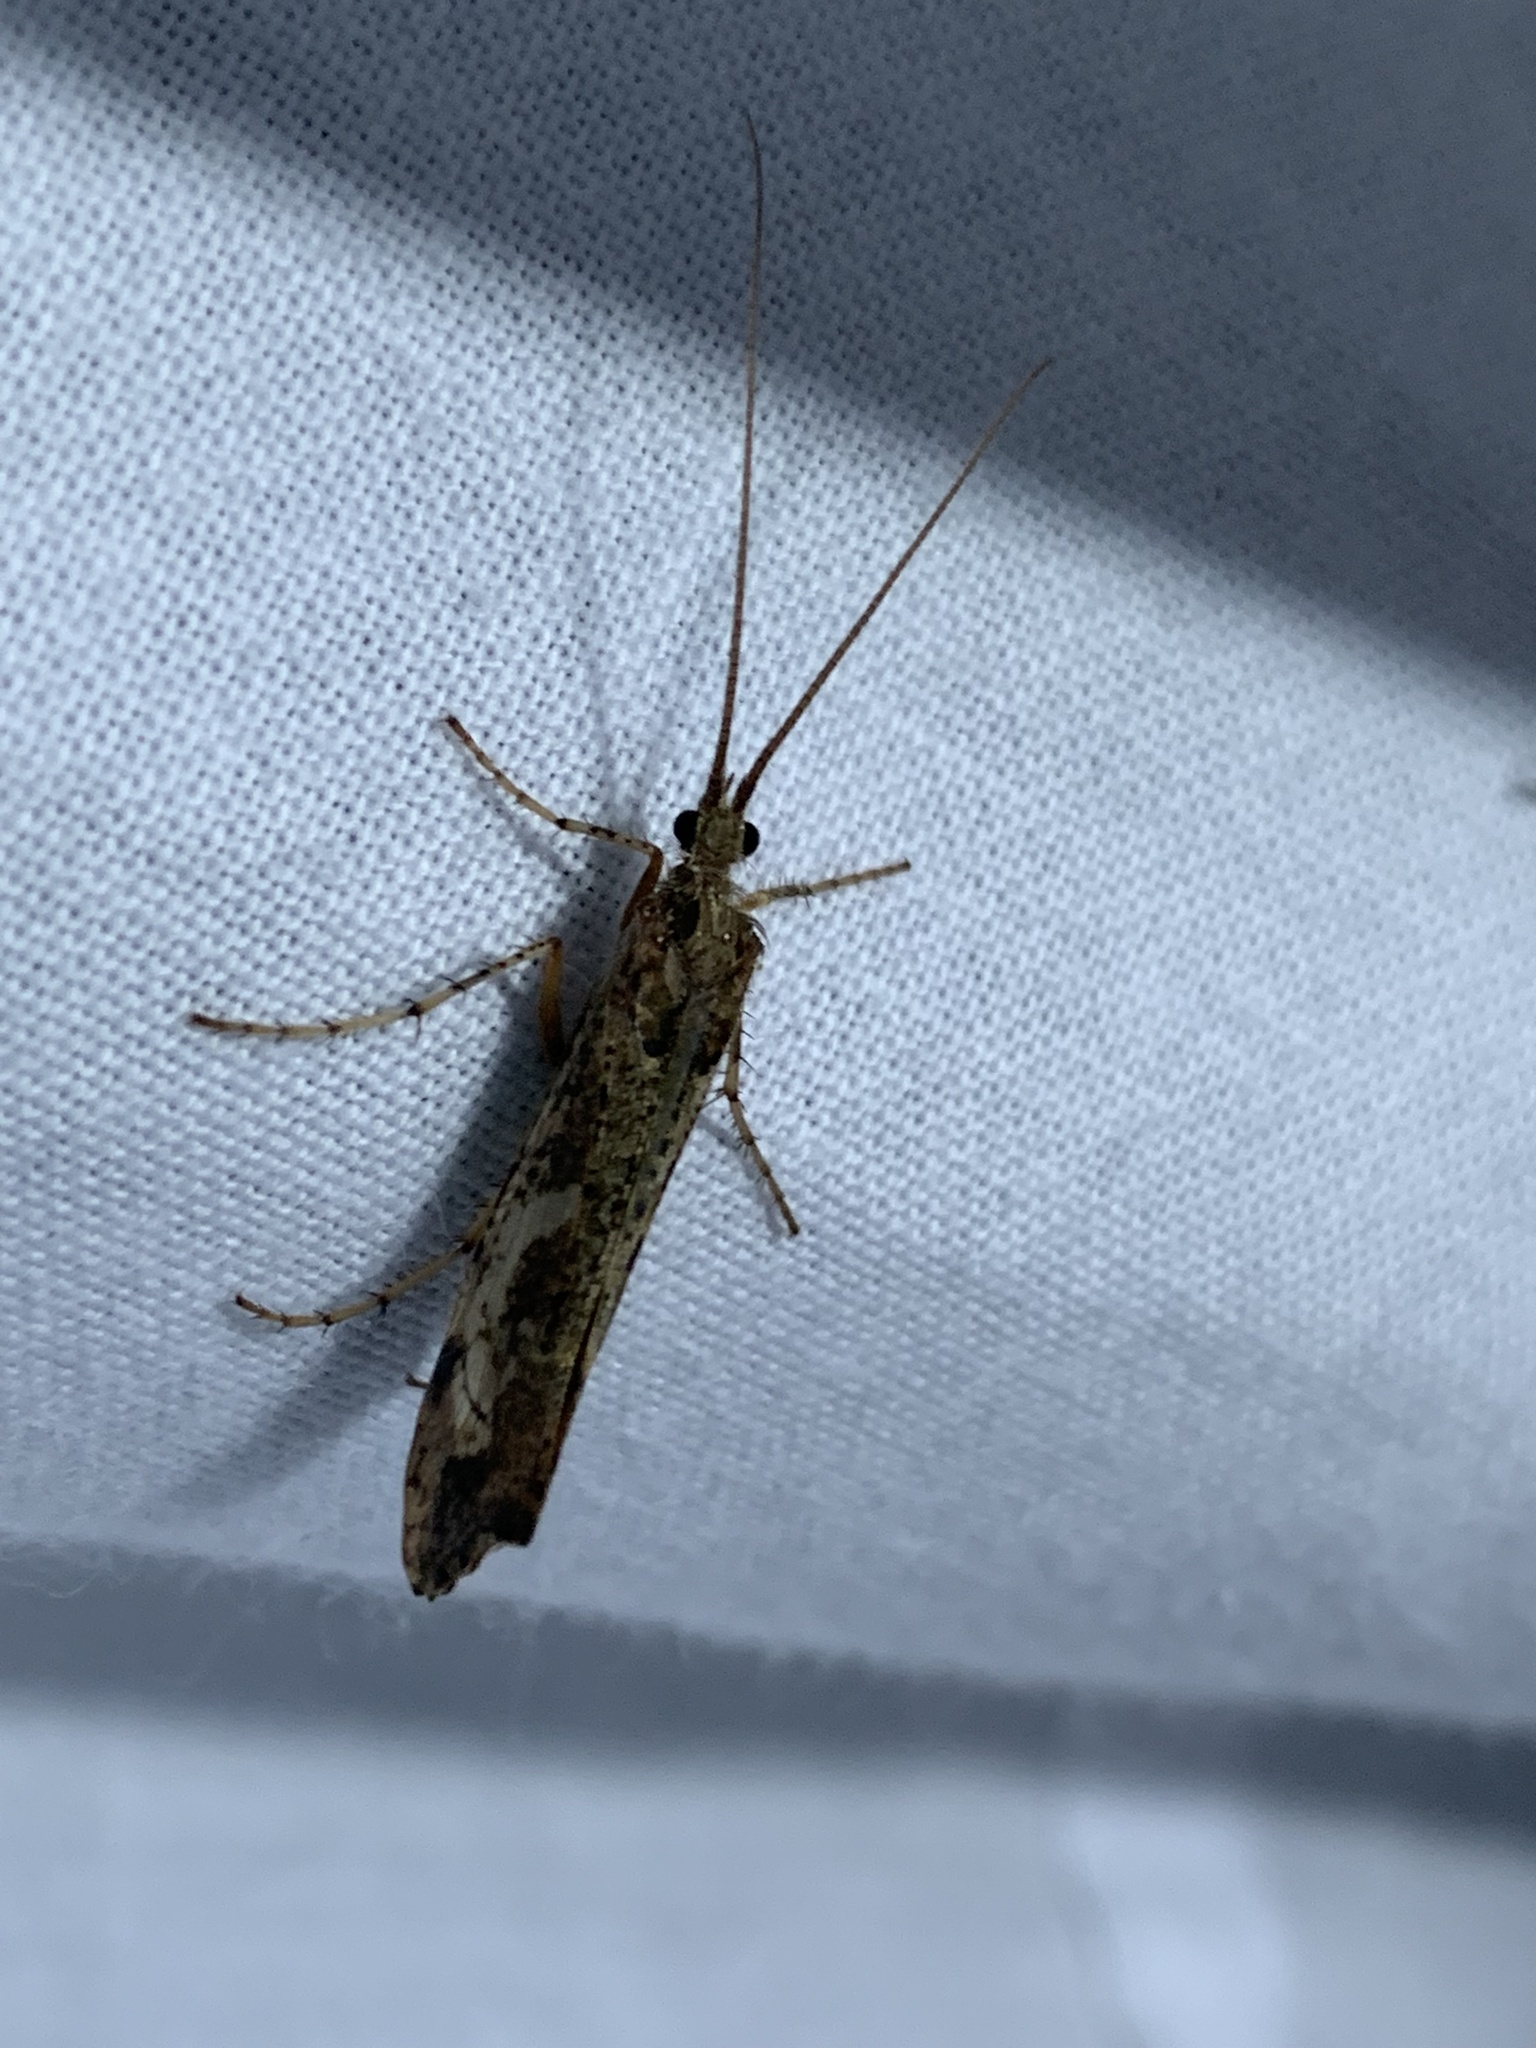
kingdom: Animalia
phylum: Arthropoda
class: Insecta
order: Trichoptera
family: Limnephilidae
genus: Glyphotaelius
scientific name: Glyphotaelius pellucidus
